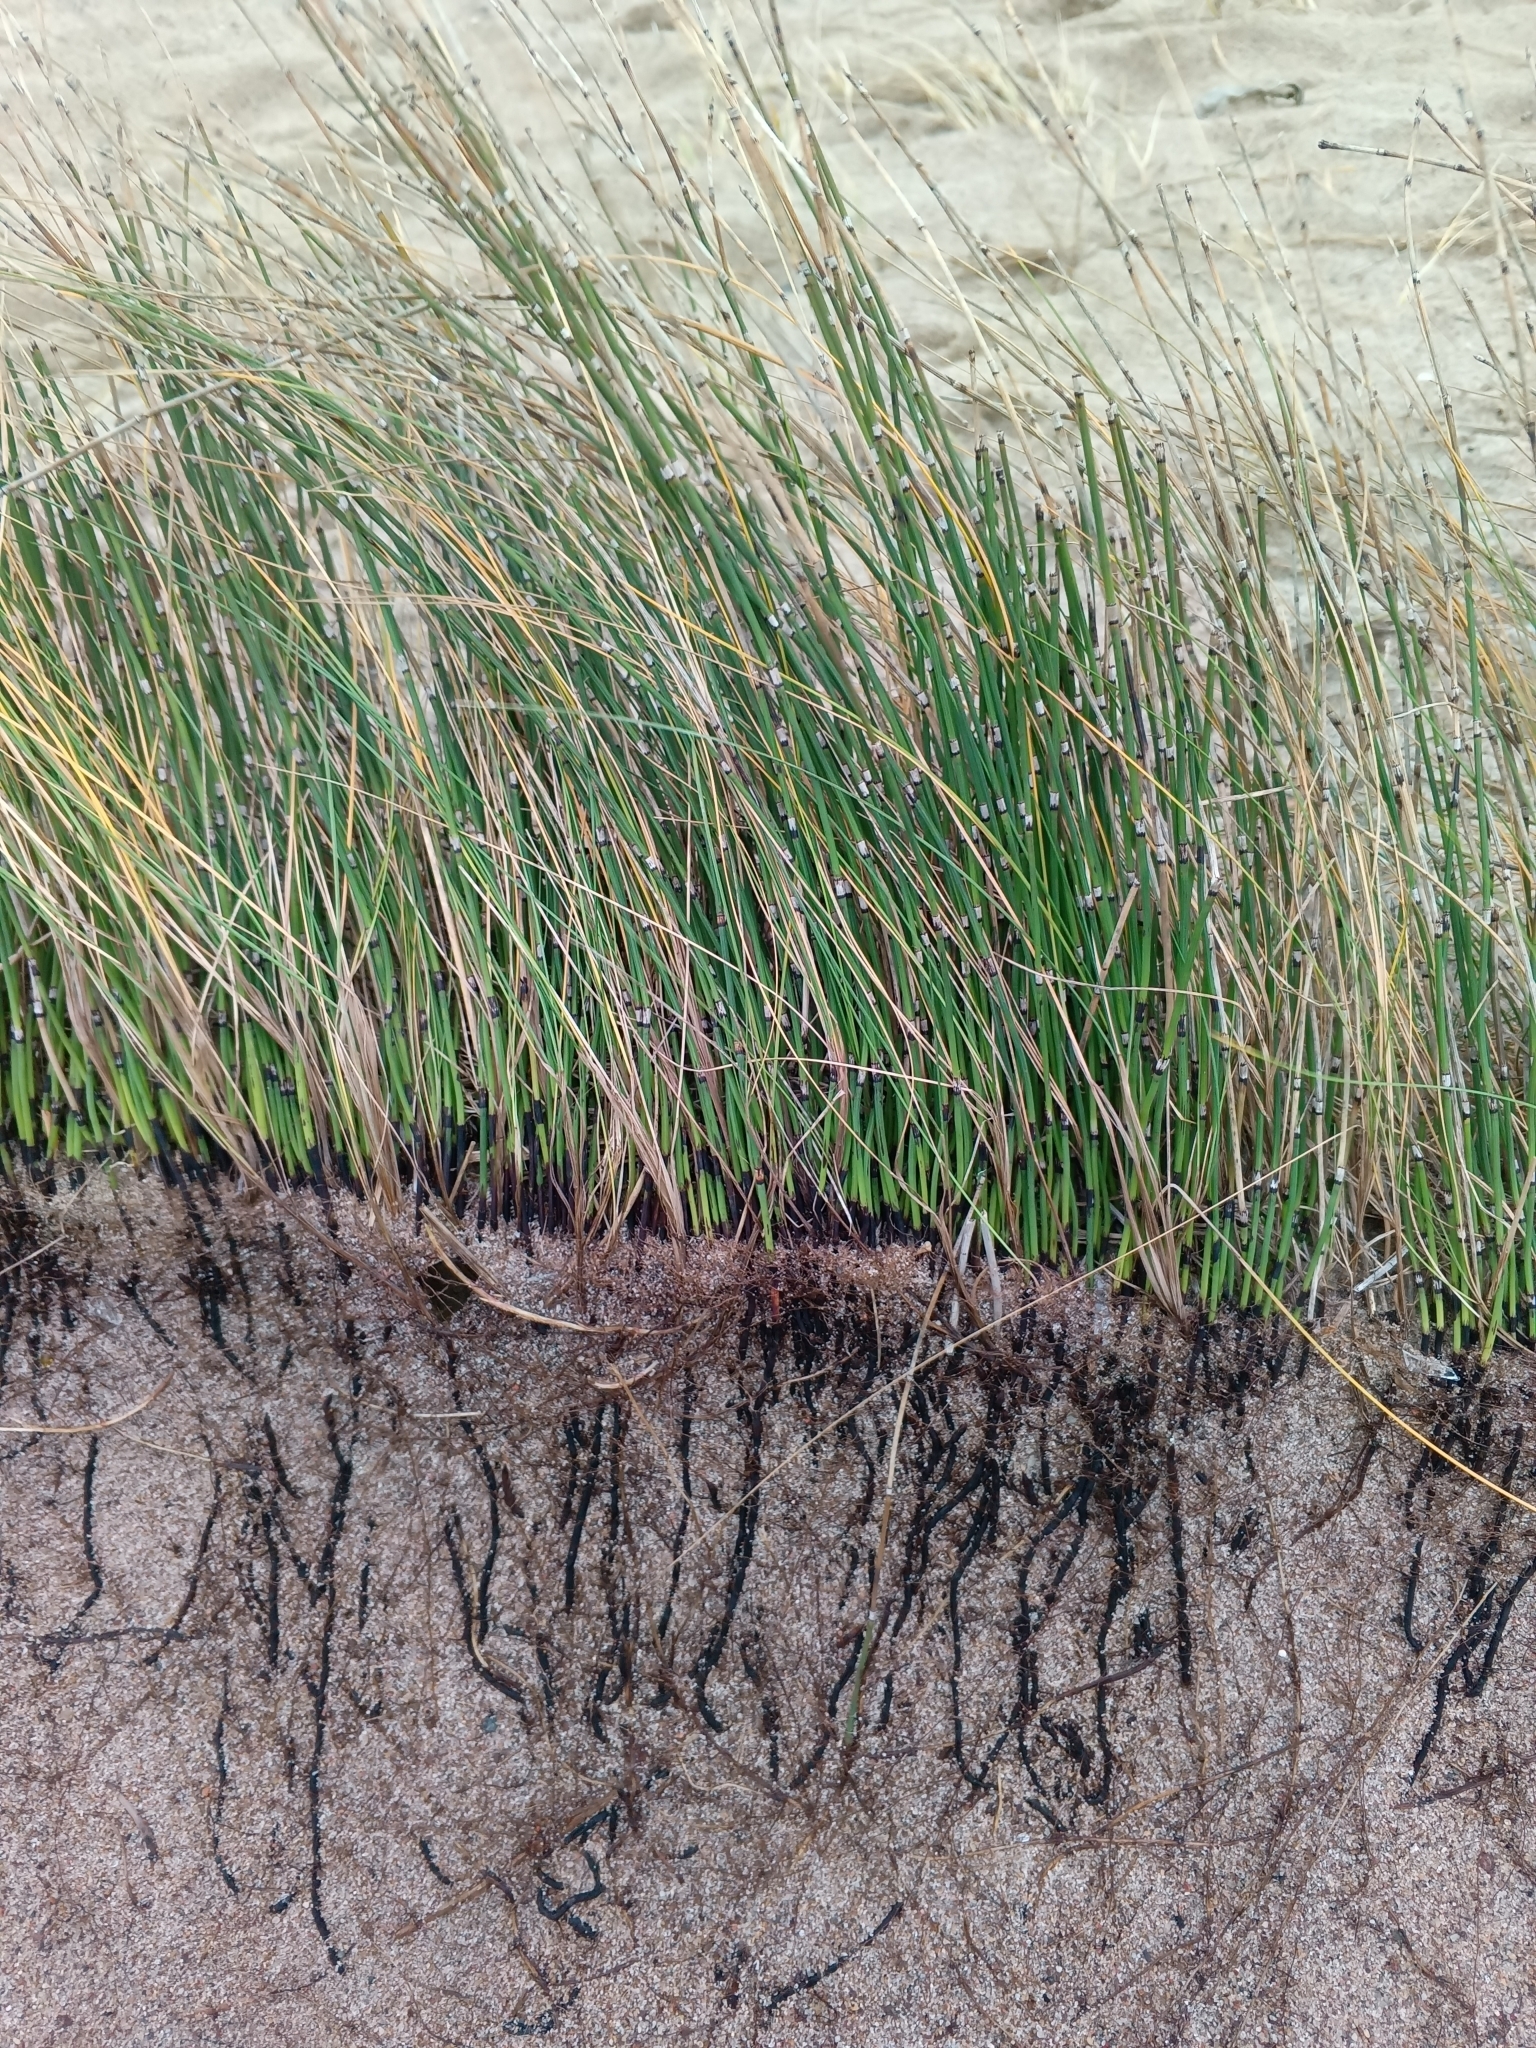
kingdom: Plantae
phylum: Tracheophyta
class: Polypodiopsida
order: Equisetales
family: Equisetaceae
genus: Equisetum
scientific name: Equisetum moorei
